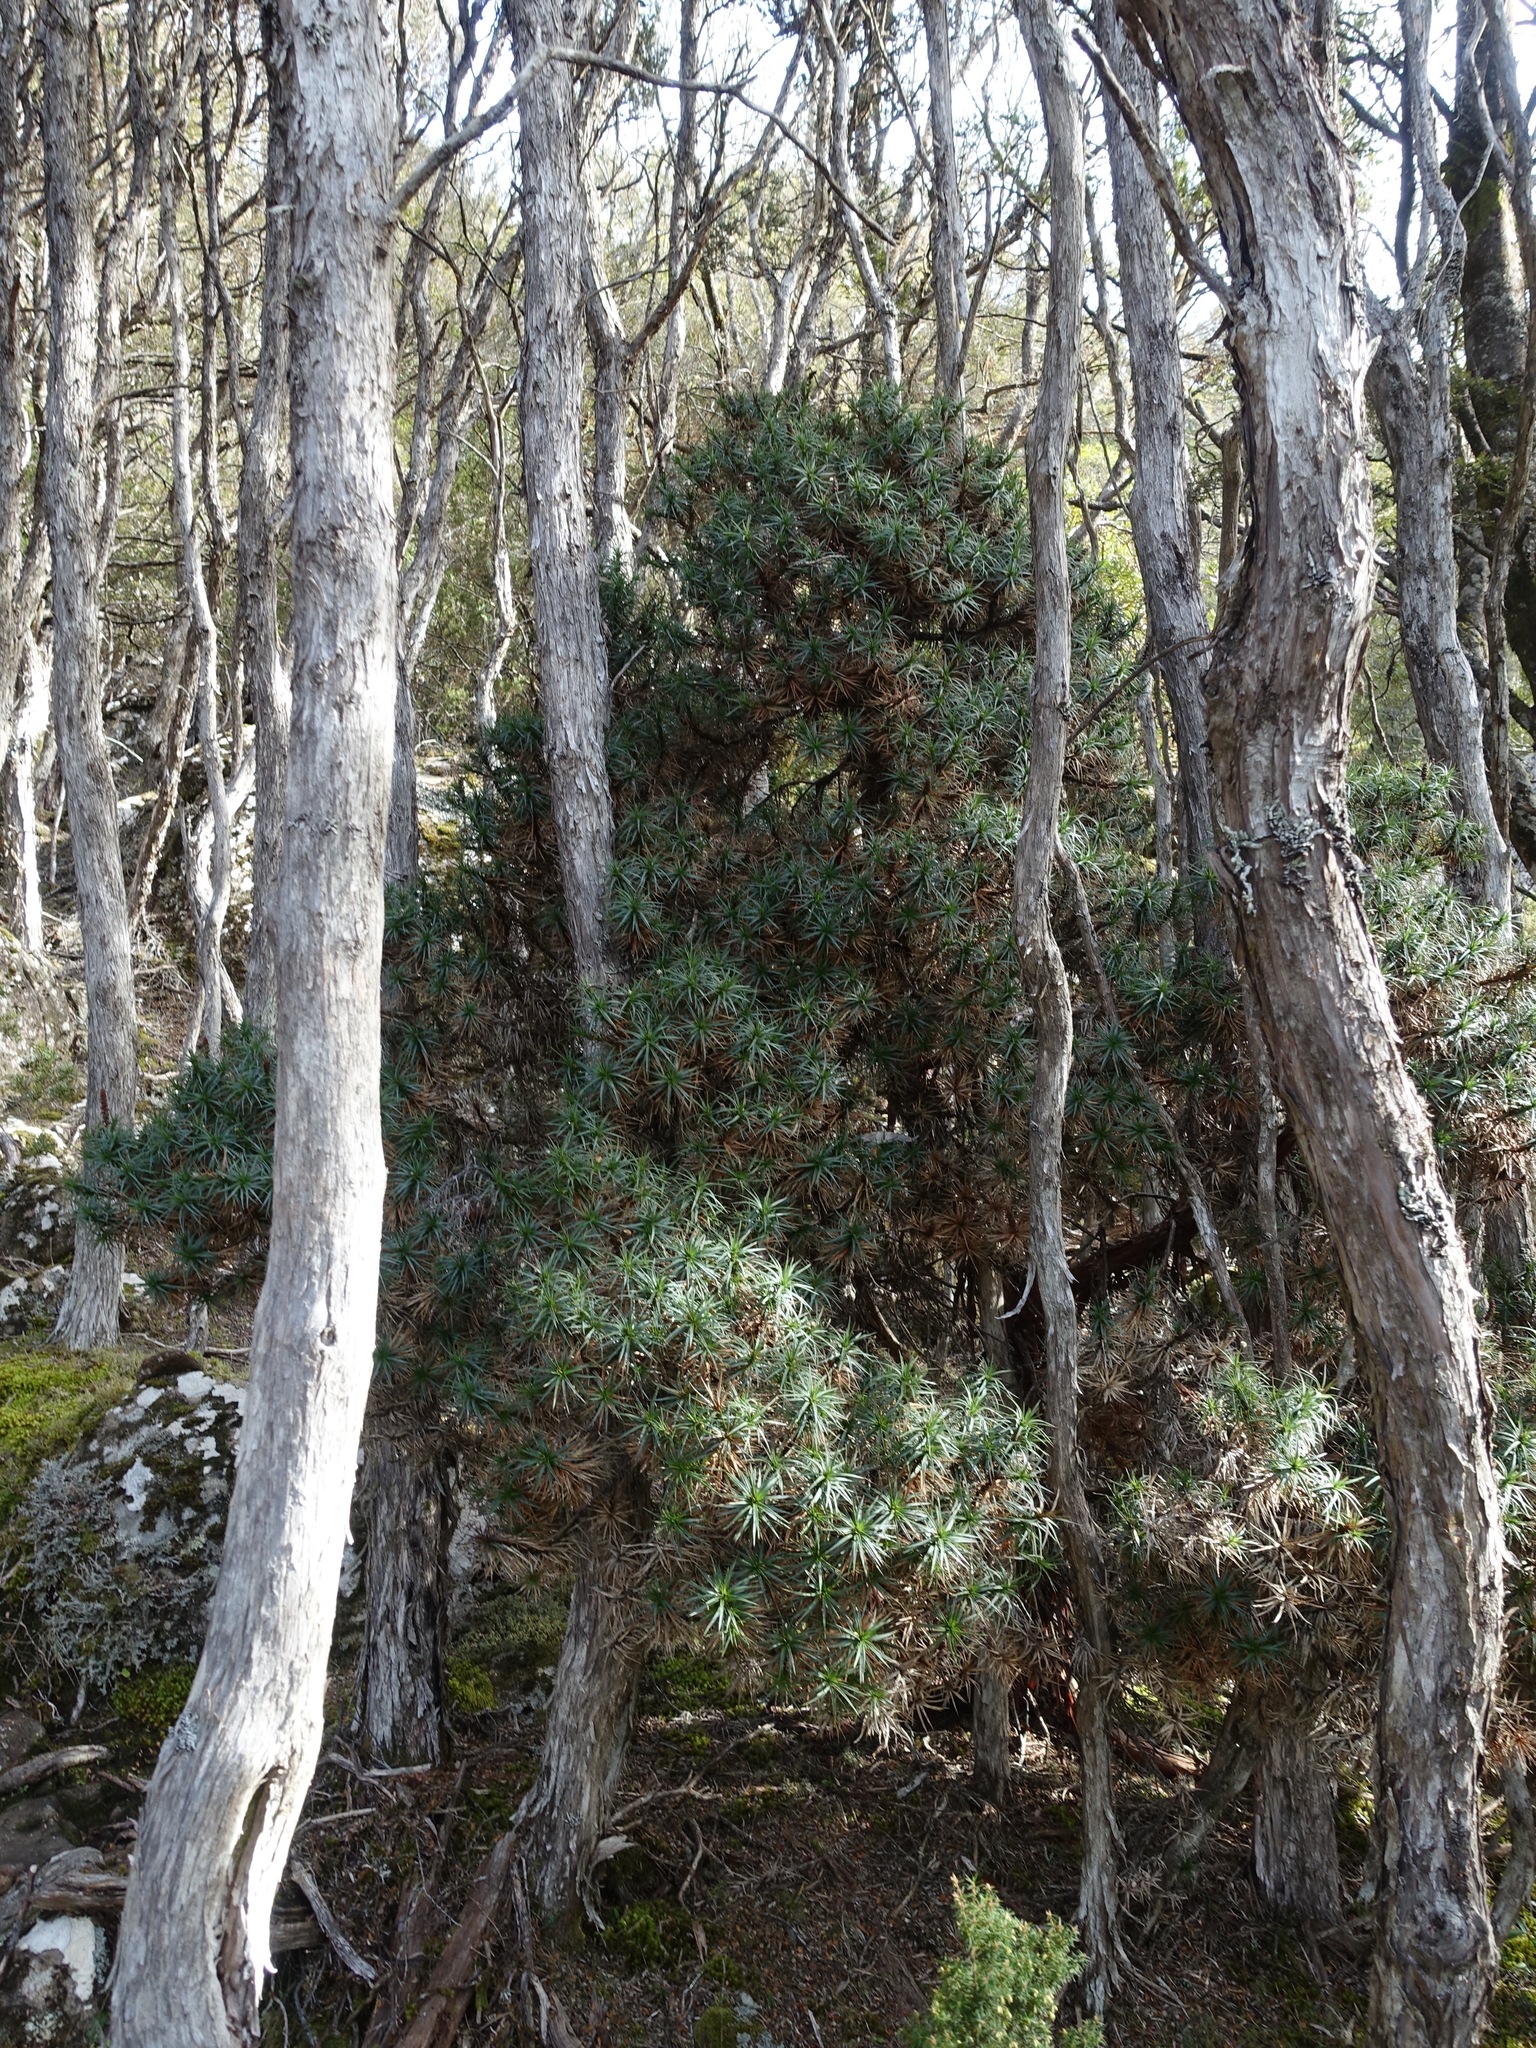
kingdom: Plantae
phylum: Tracheophyta
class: Magnoliopsida
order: Ericales
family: Ericaceae
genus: Dracophyllum
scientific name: Dracophyllum persistentifolium
